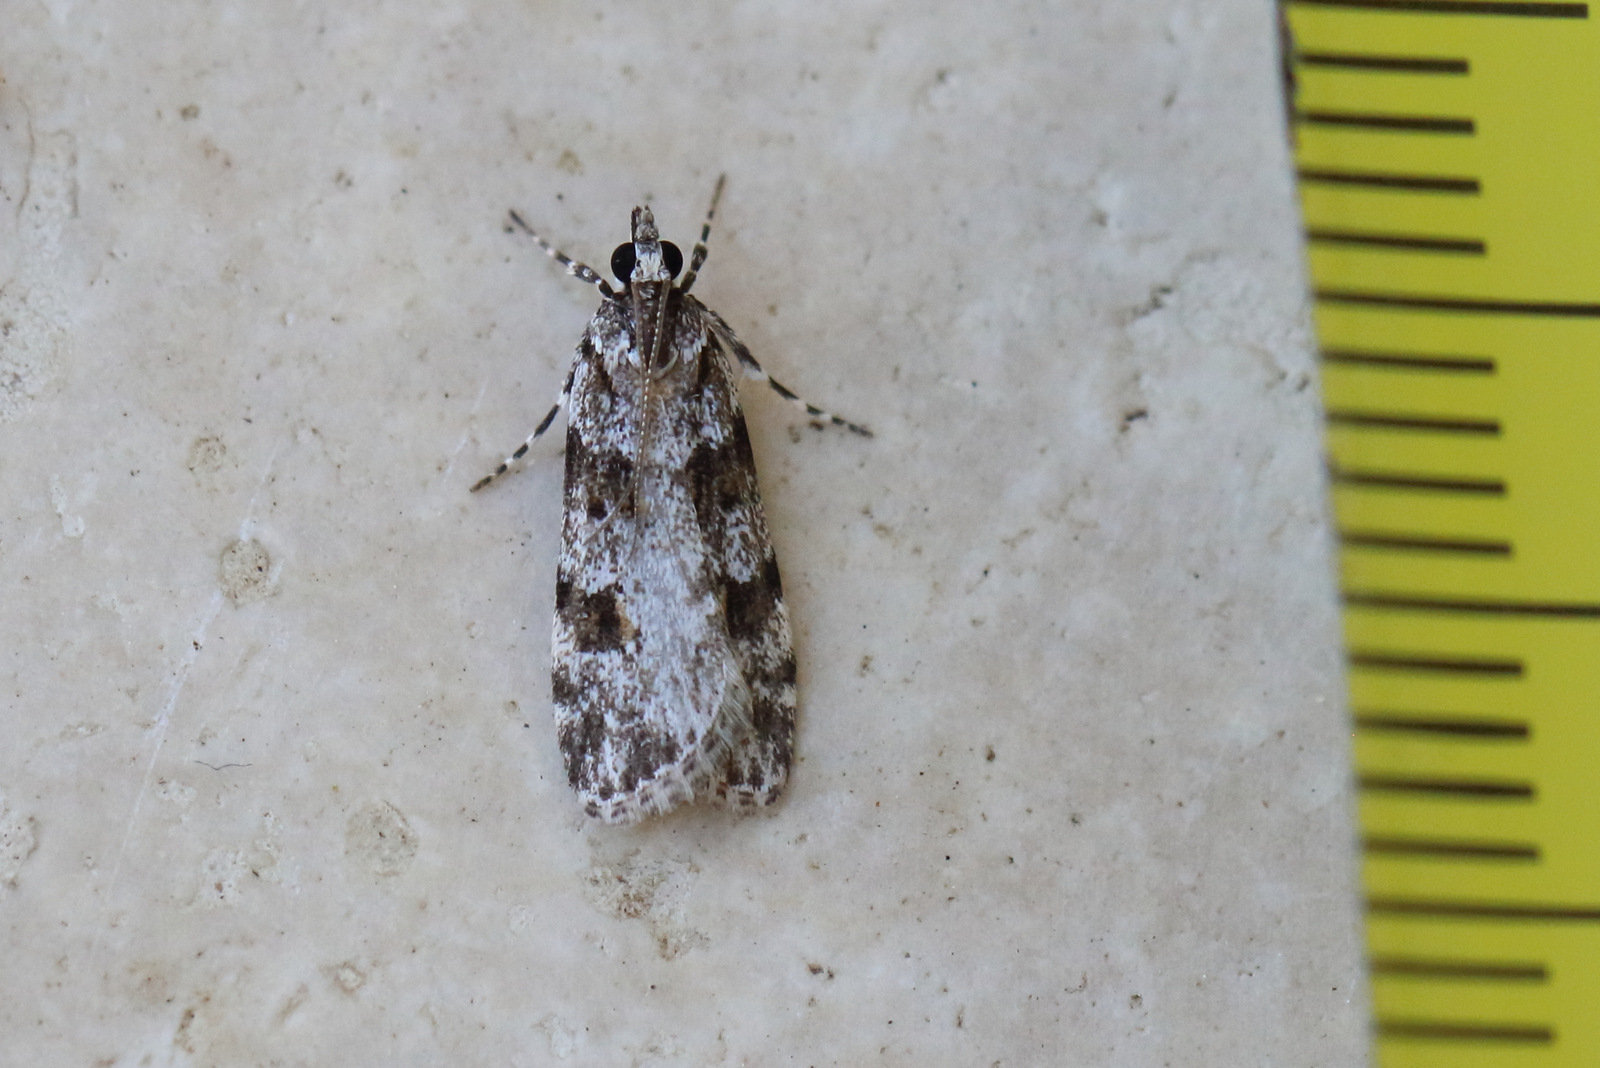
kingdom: Animalia
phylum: Arthropoda
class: Insecta
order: Lepidoptera
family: Crambidae
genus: Scoparia
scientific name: Scoparia chiasta
